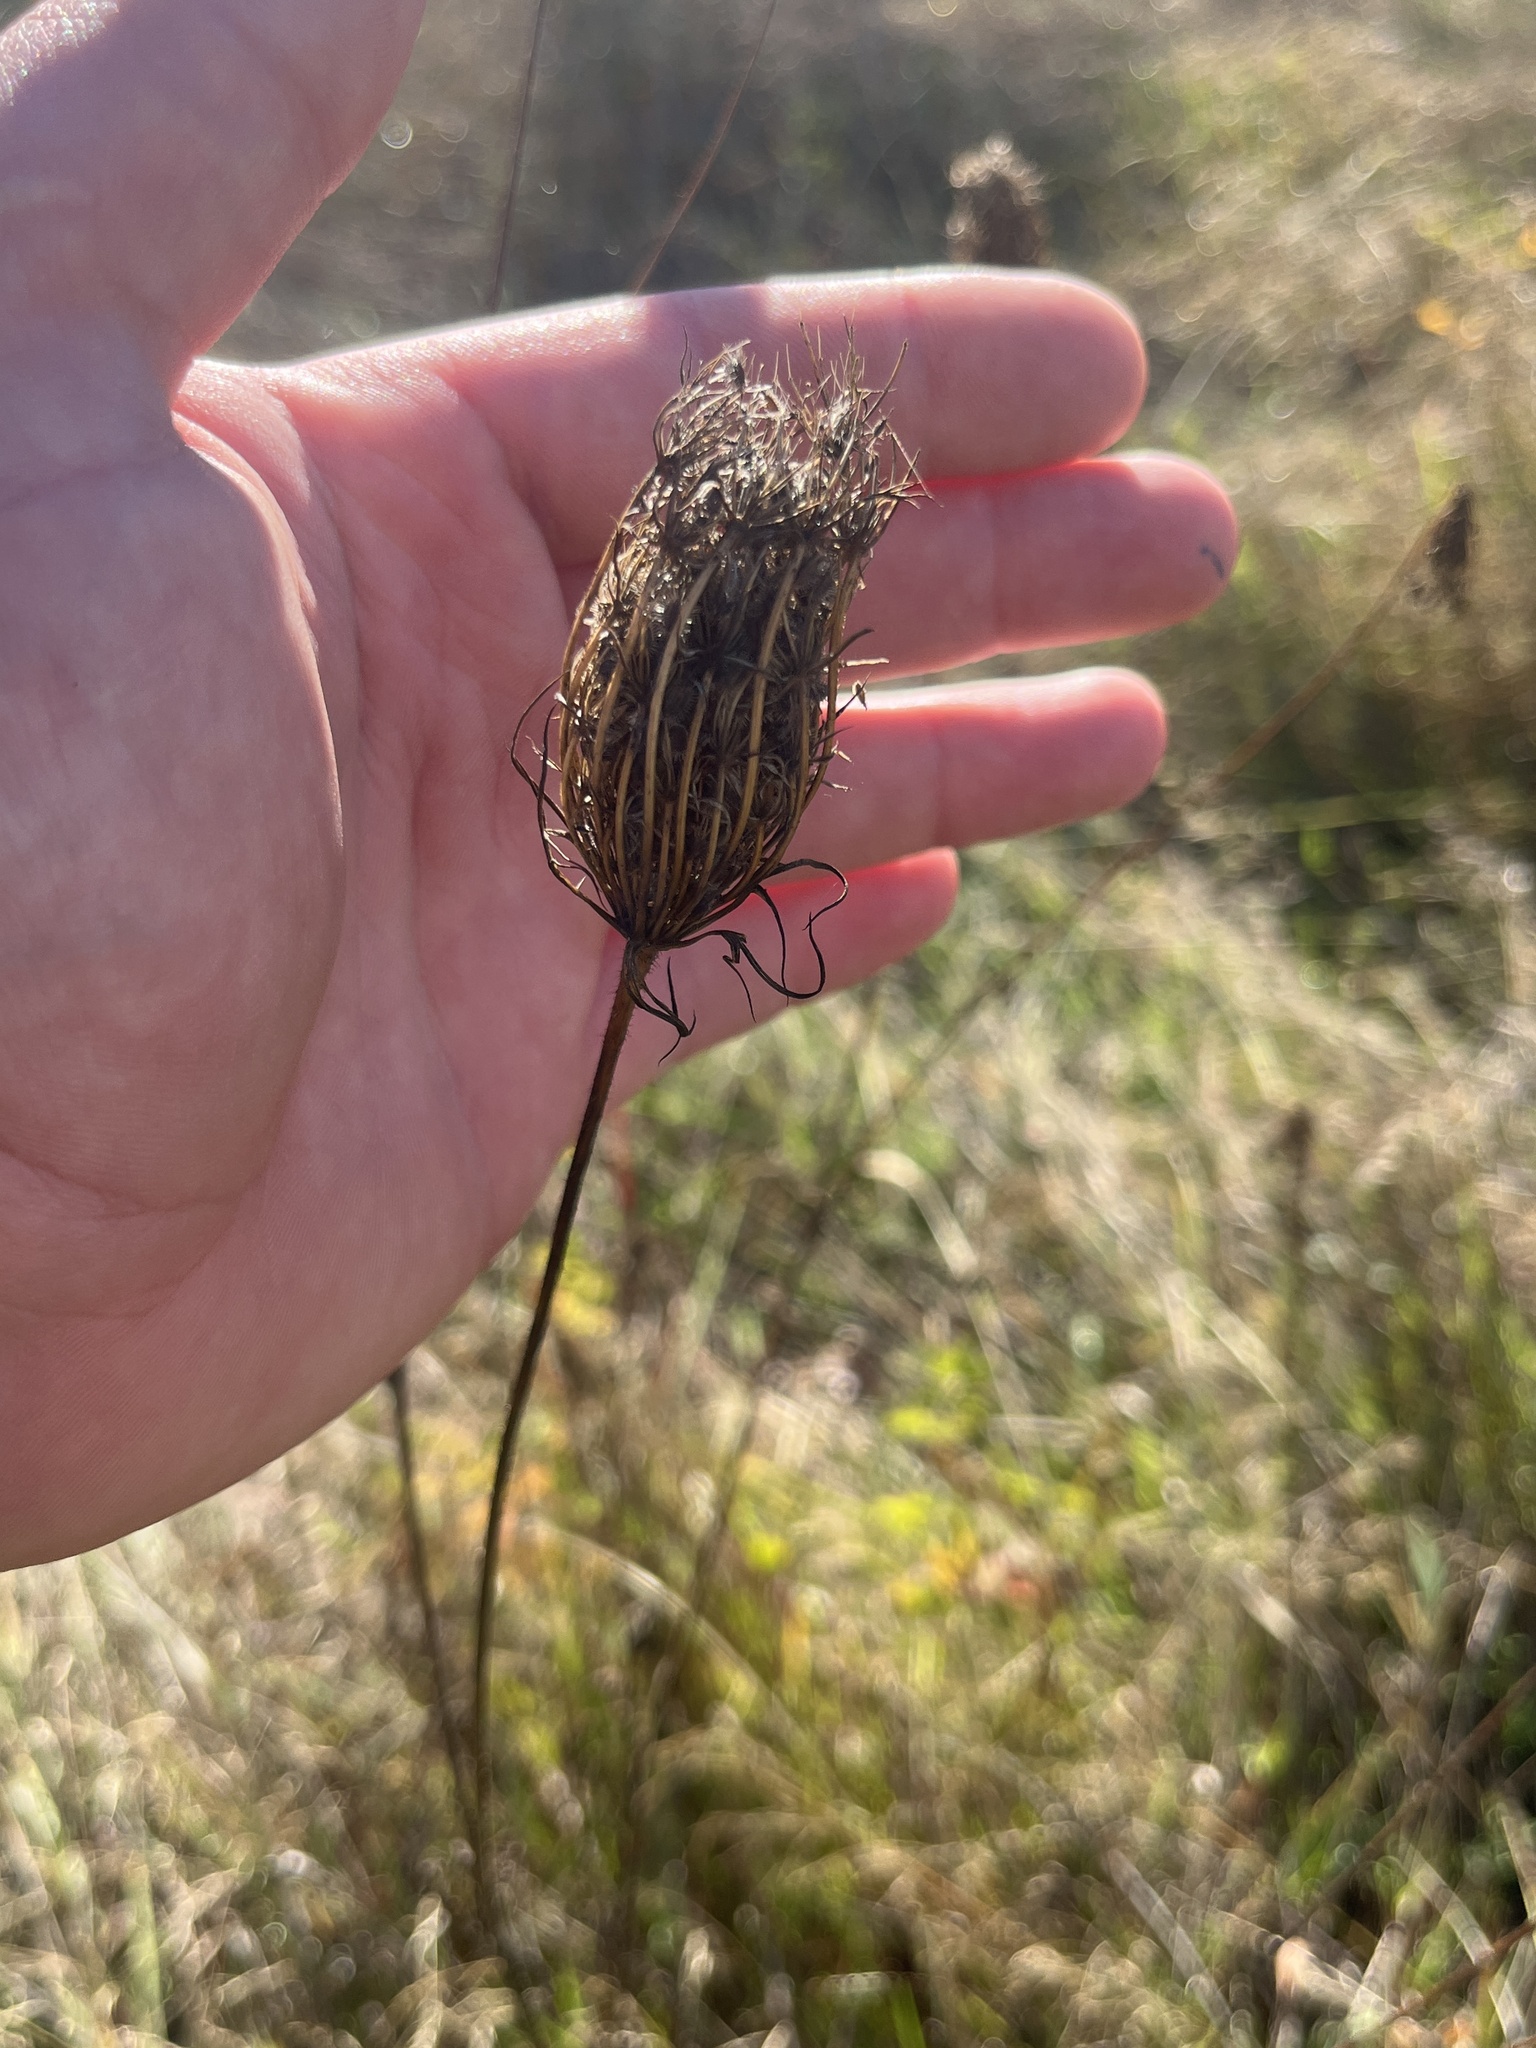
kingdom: Plantae
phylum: Tracheophyta
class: Magnoliopsida
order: Apiales
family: Apiaceae
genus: Daucus
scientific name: Daucus carota
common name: Wild carrot
